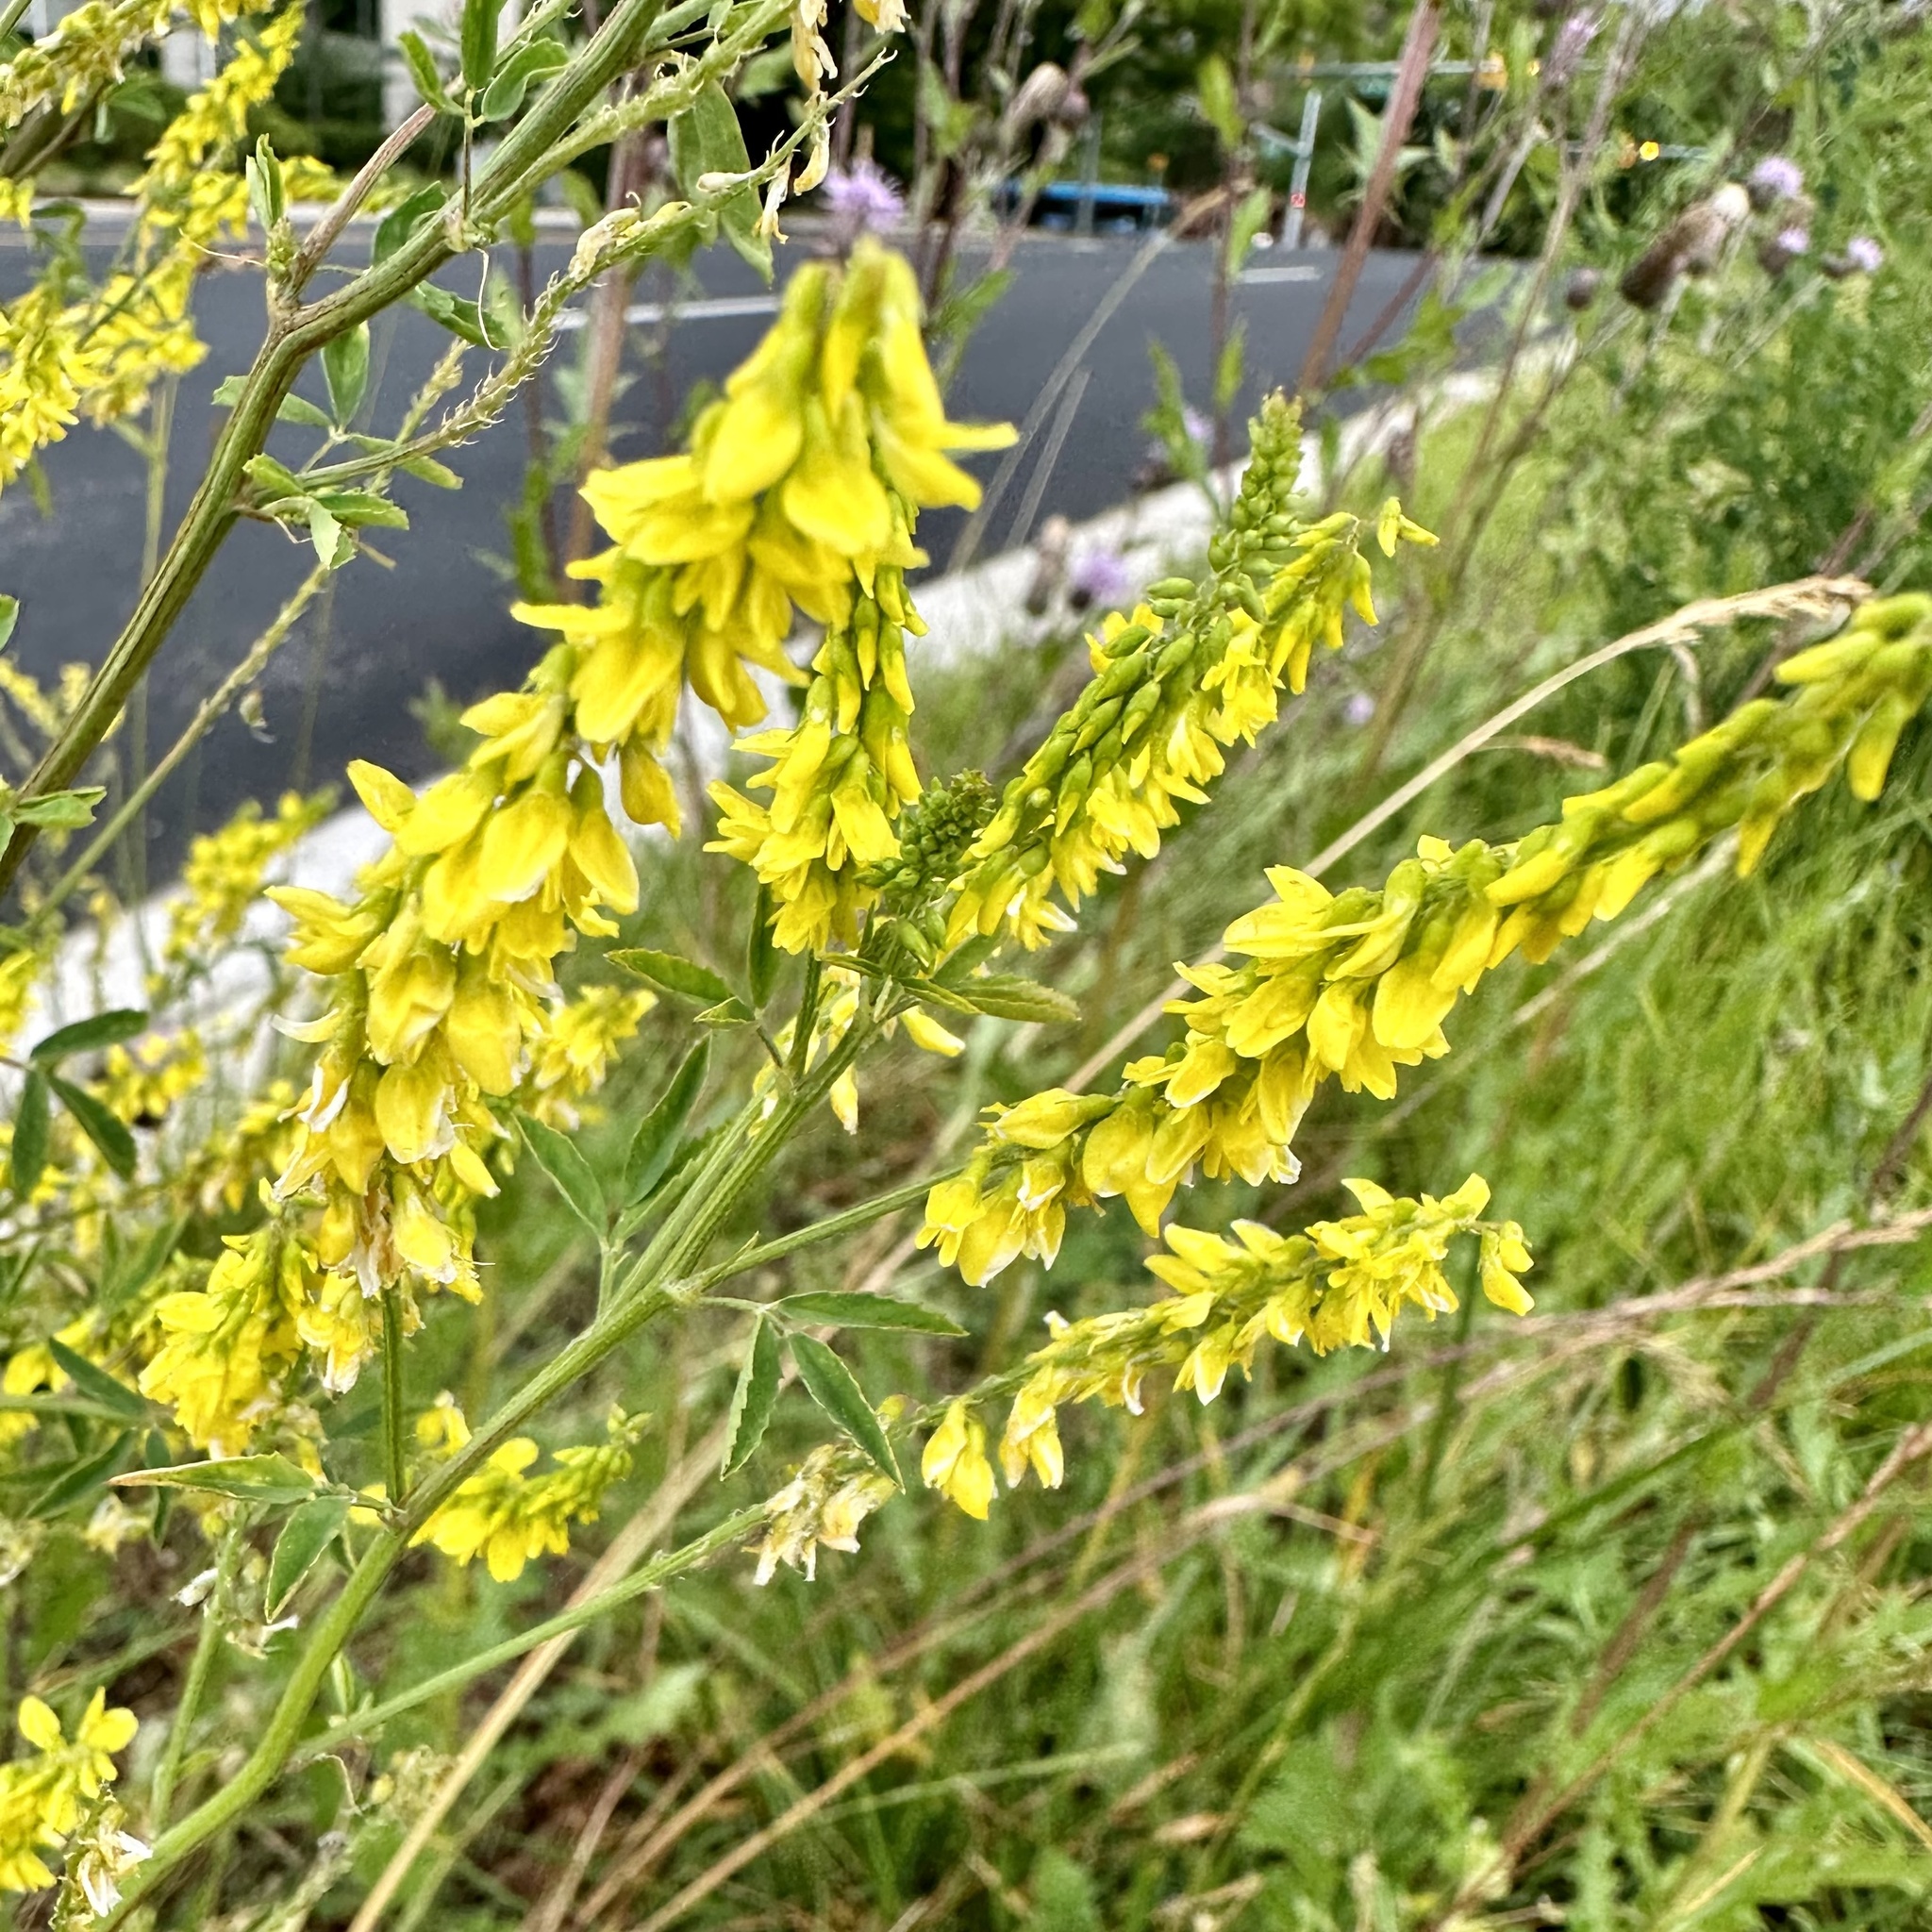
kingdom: Plantae
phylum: Tracheophyta
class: Magnoliopsida
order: Fabales
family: Fabaceae
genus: Melilotus
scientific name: Melilotus officinalis
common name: Sweetclover
